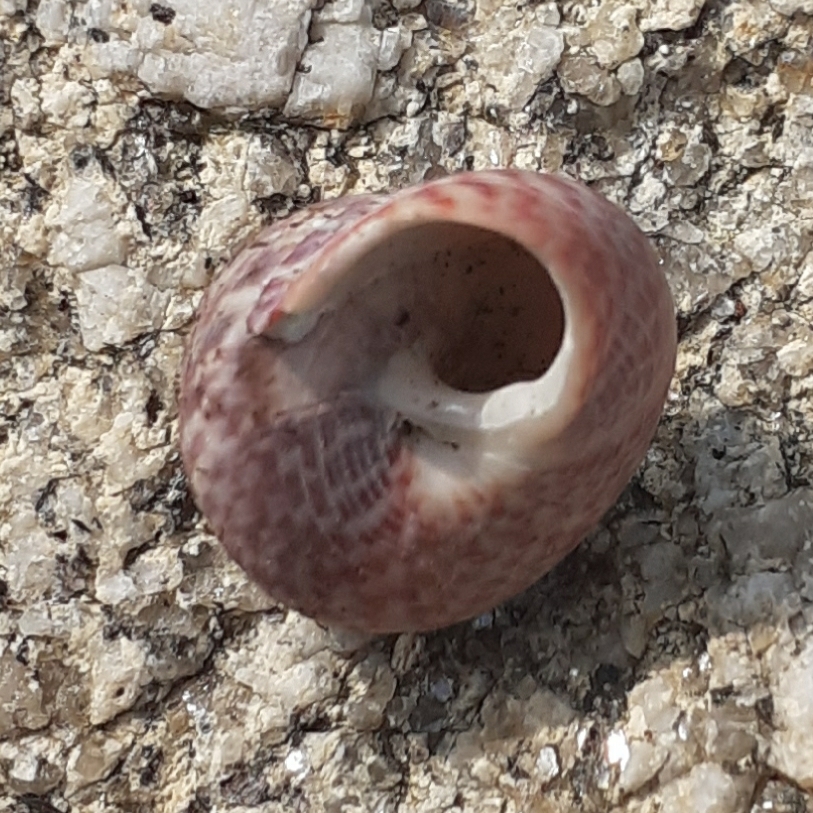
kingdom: Animalia
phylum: Mollusca
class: Gastropoda
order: Trochida
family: Trochidae
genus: Phorcus
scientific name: Phorcus lineatus
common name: Toothed top shell
